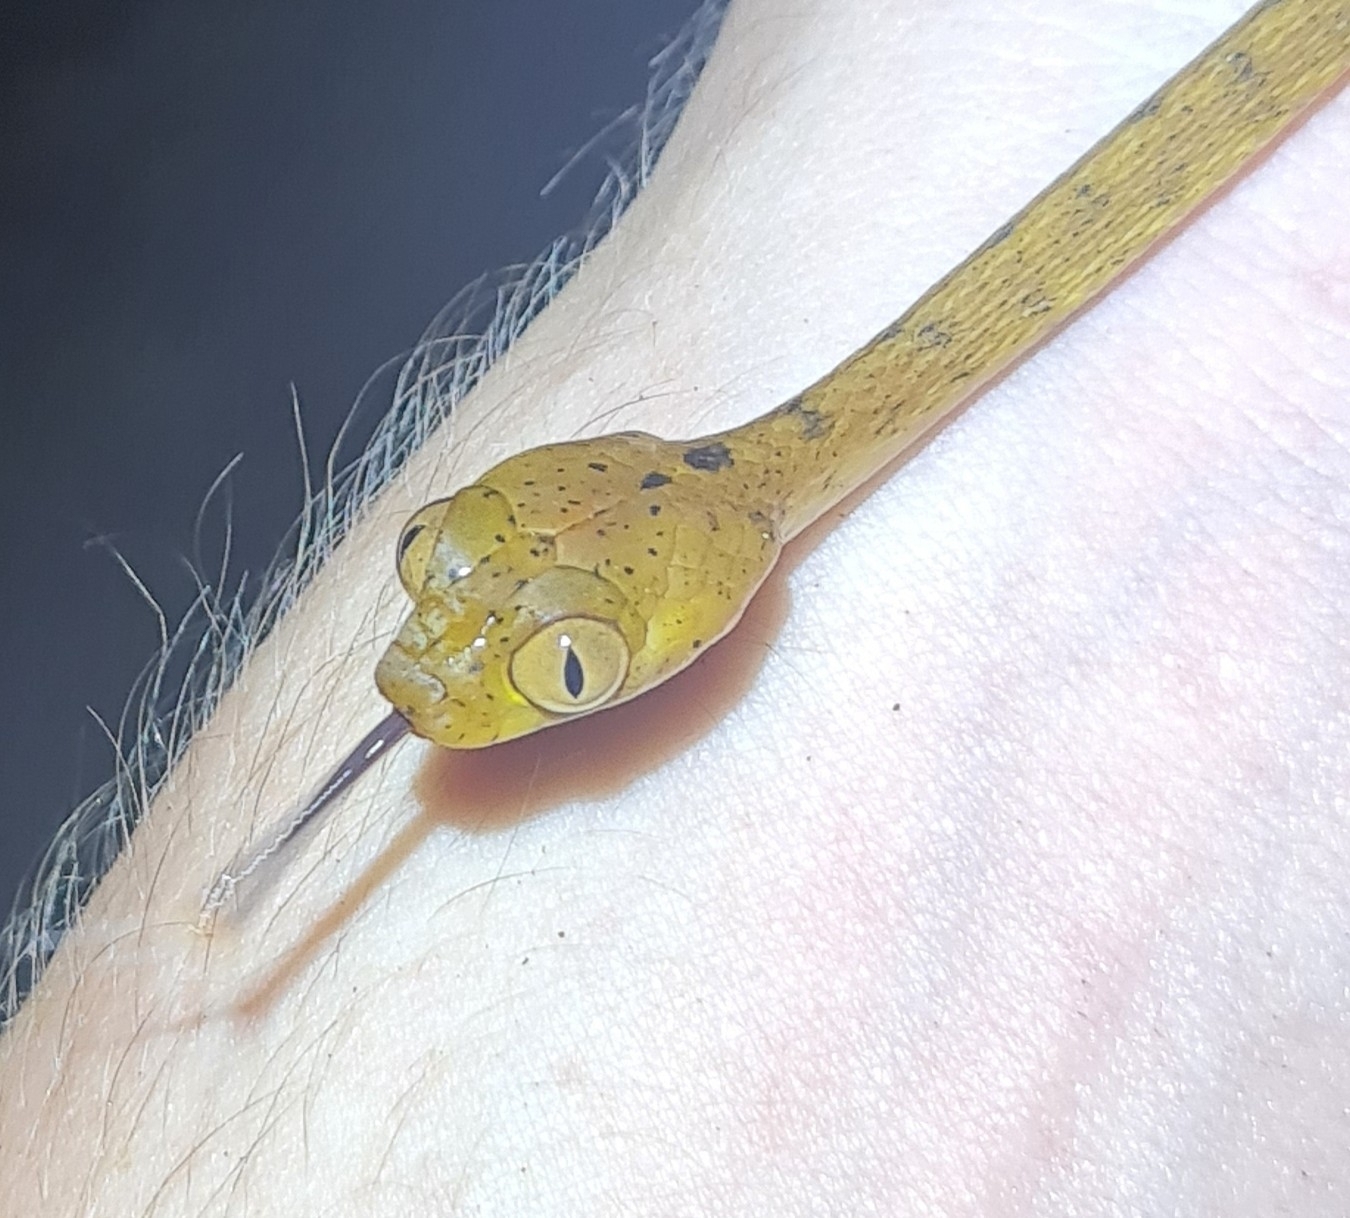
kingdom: Animalia
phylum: Chordata
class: Squamata
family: Colubridae
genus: Imantodes
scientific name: Imantodes inornatus
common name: Western tree snake
